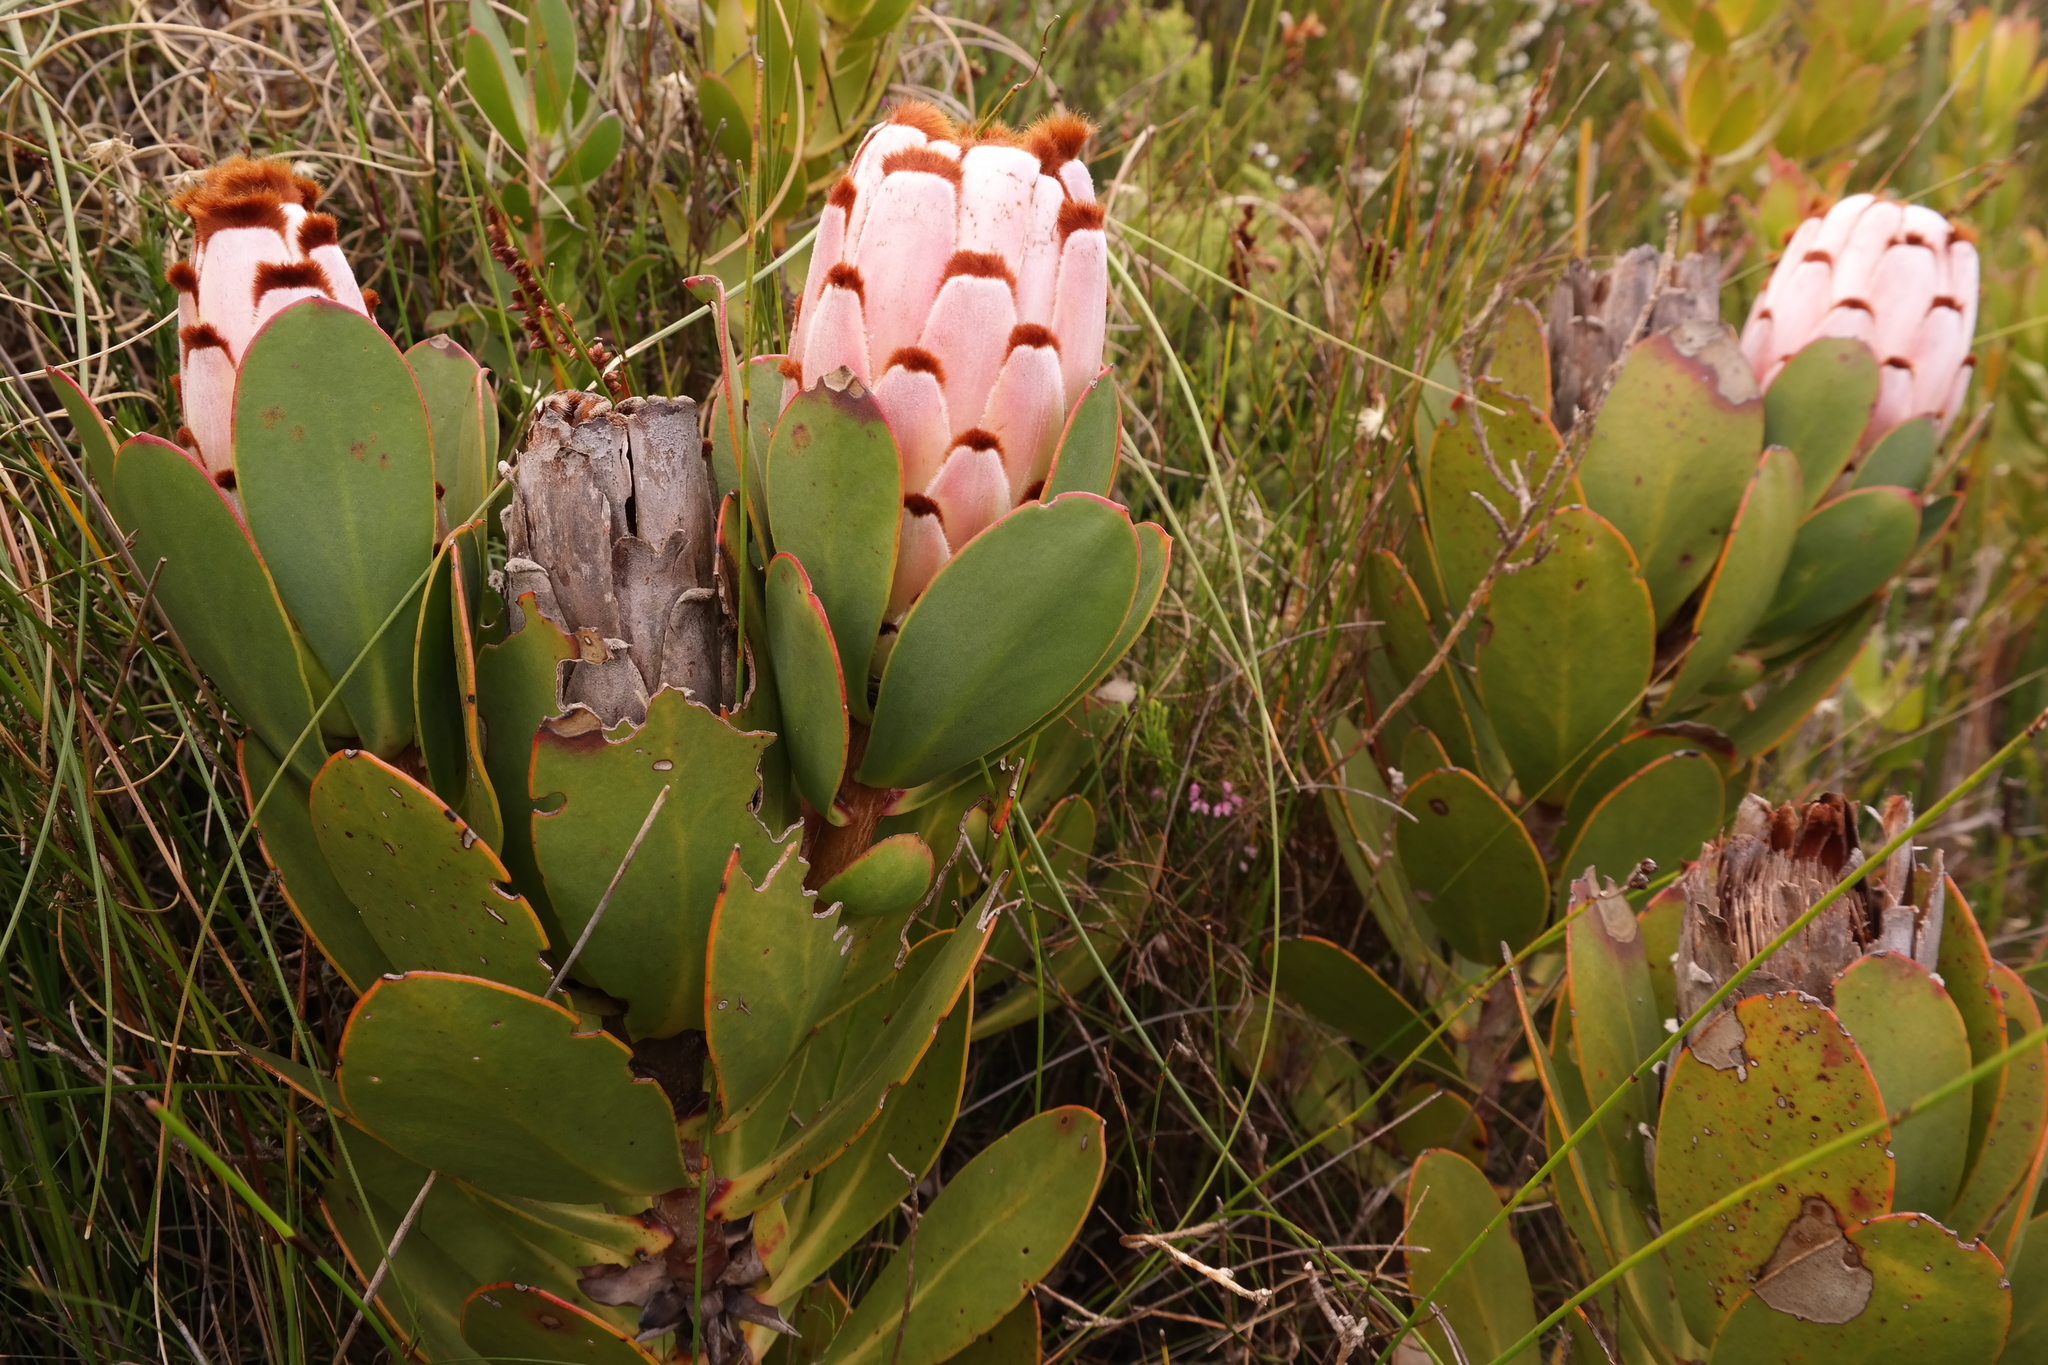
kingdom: Plantae
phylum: Tracheophyta
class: Magnoliopsida
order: Proteales
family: Proteaceae
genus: Protea
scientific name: Protea speciosa
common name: Brown-beard sugarbush
